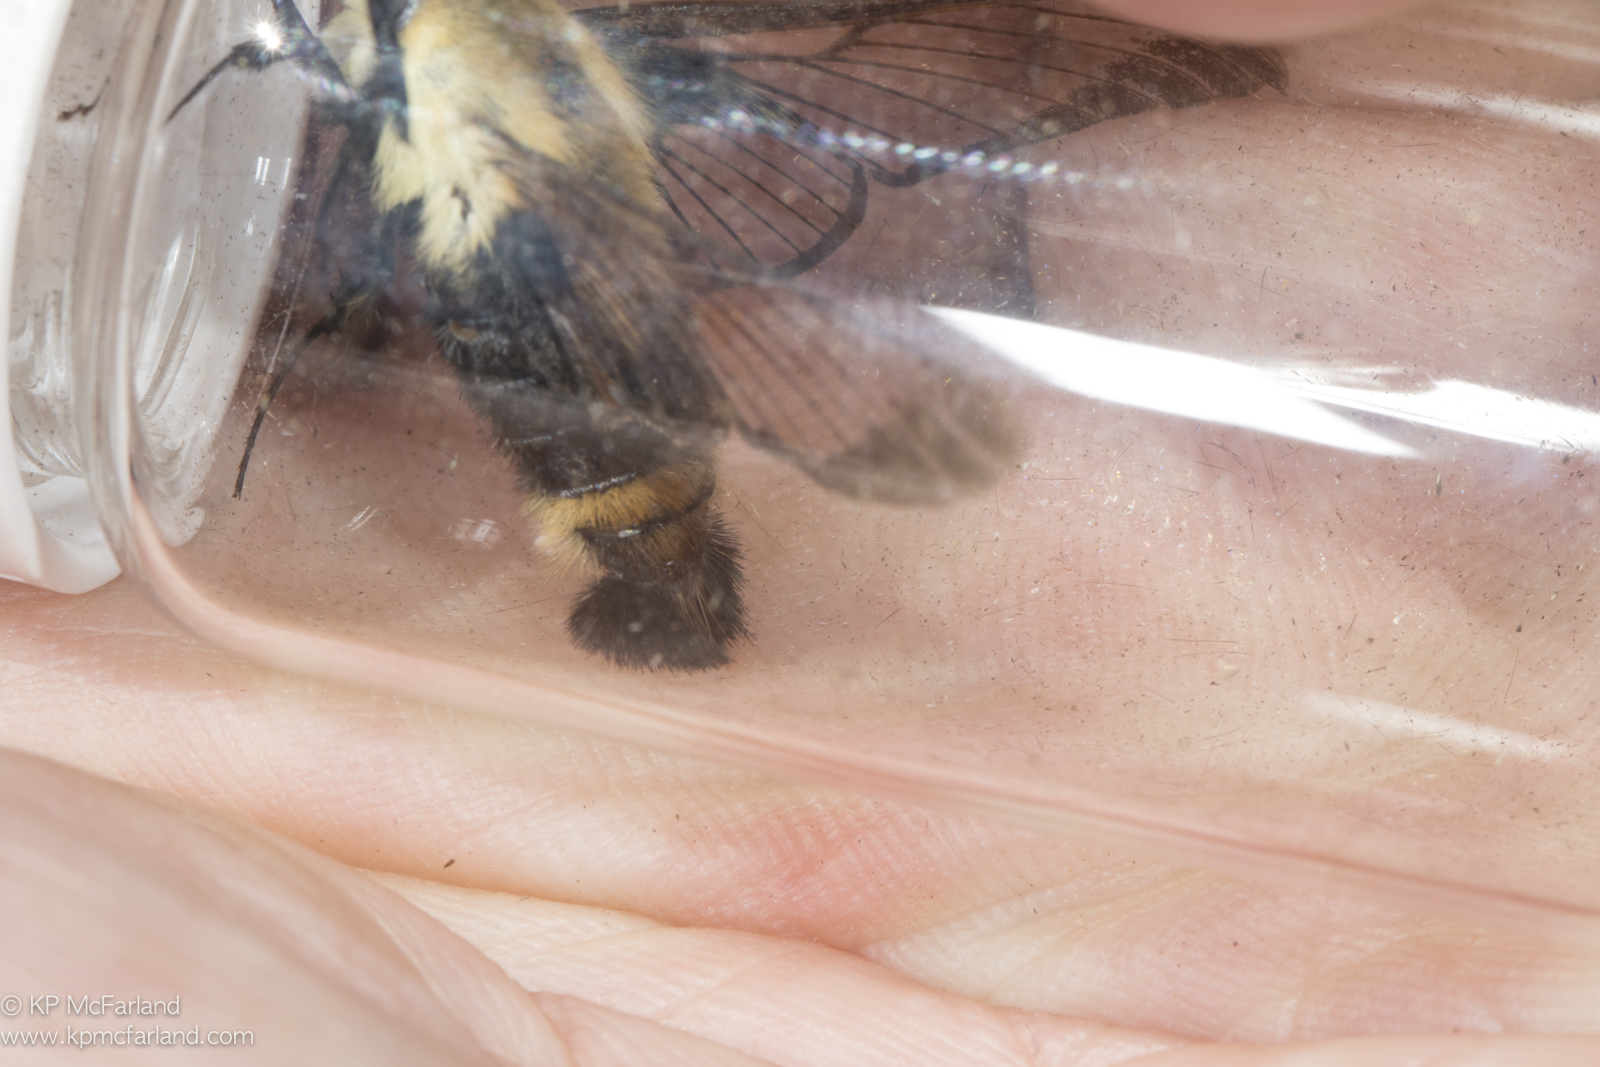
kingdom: Animalia
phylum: Arthropoda
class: Insecta
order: Lepidoptera
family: Sphingidae
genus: Hemaris
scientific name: Hemaris diffinis
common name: Bumblebee moth
